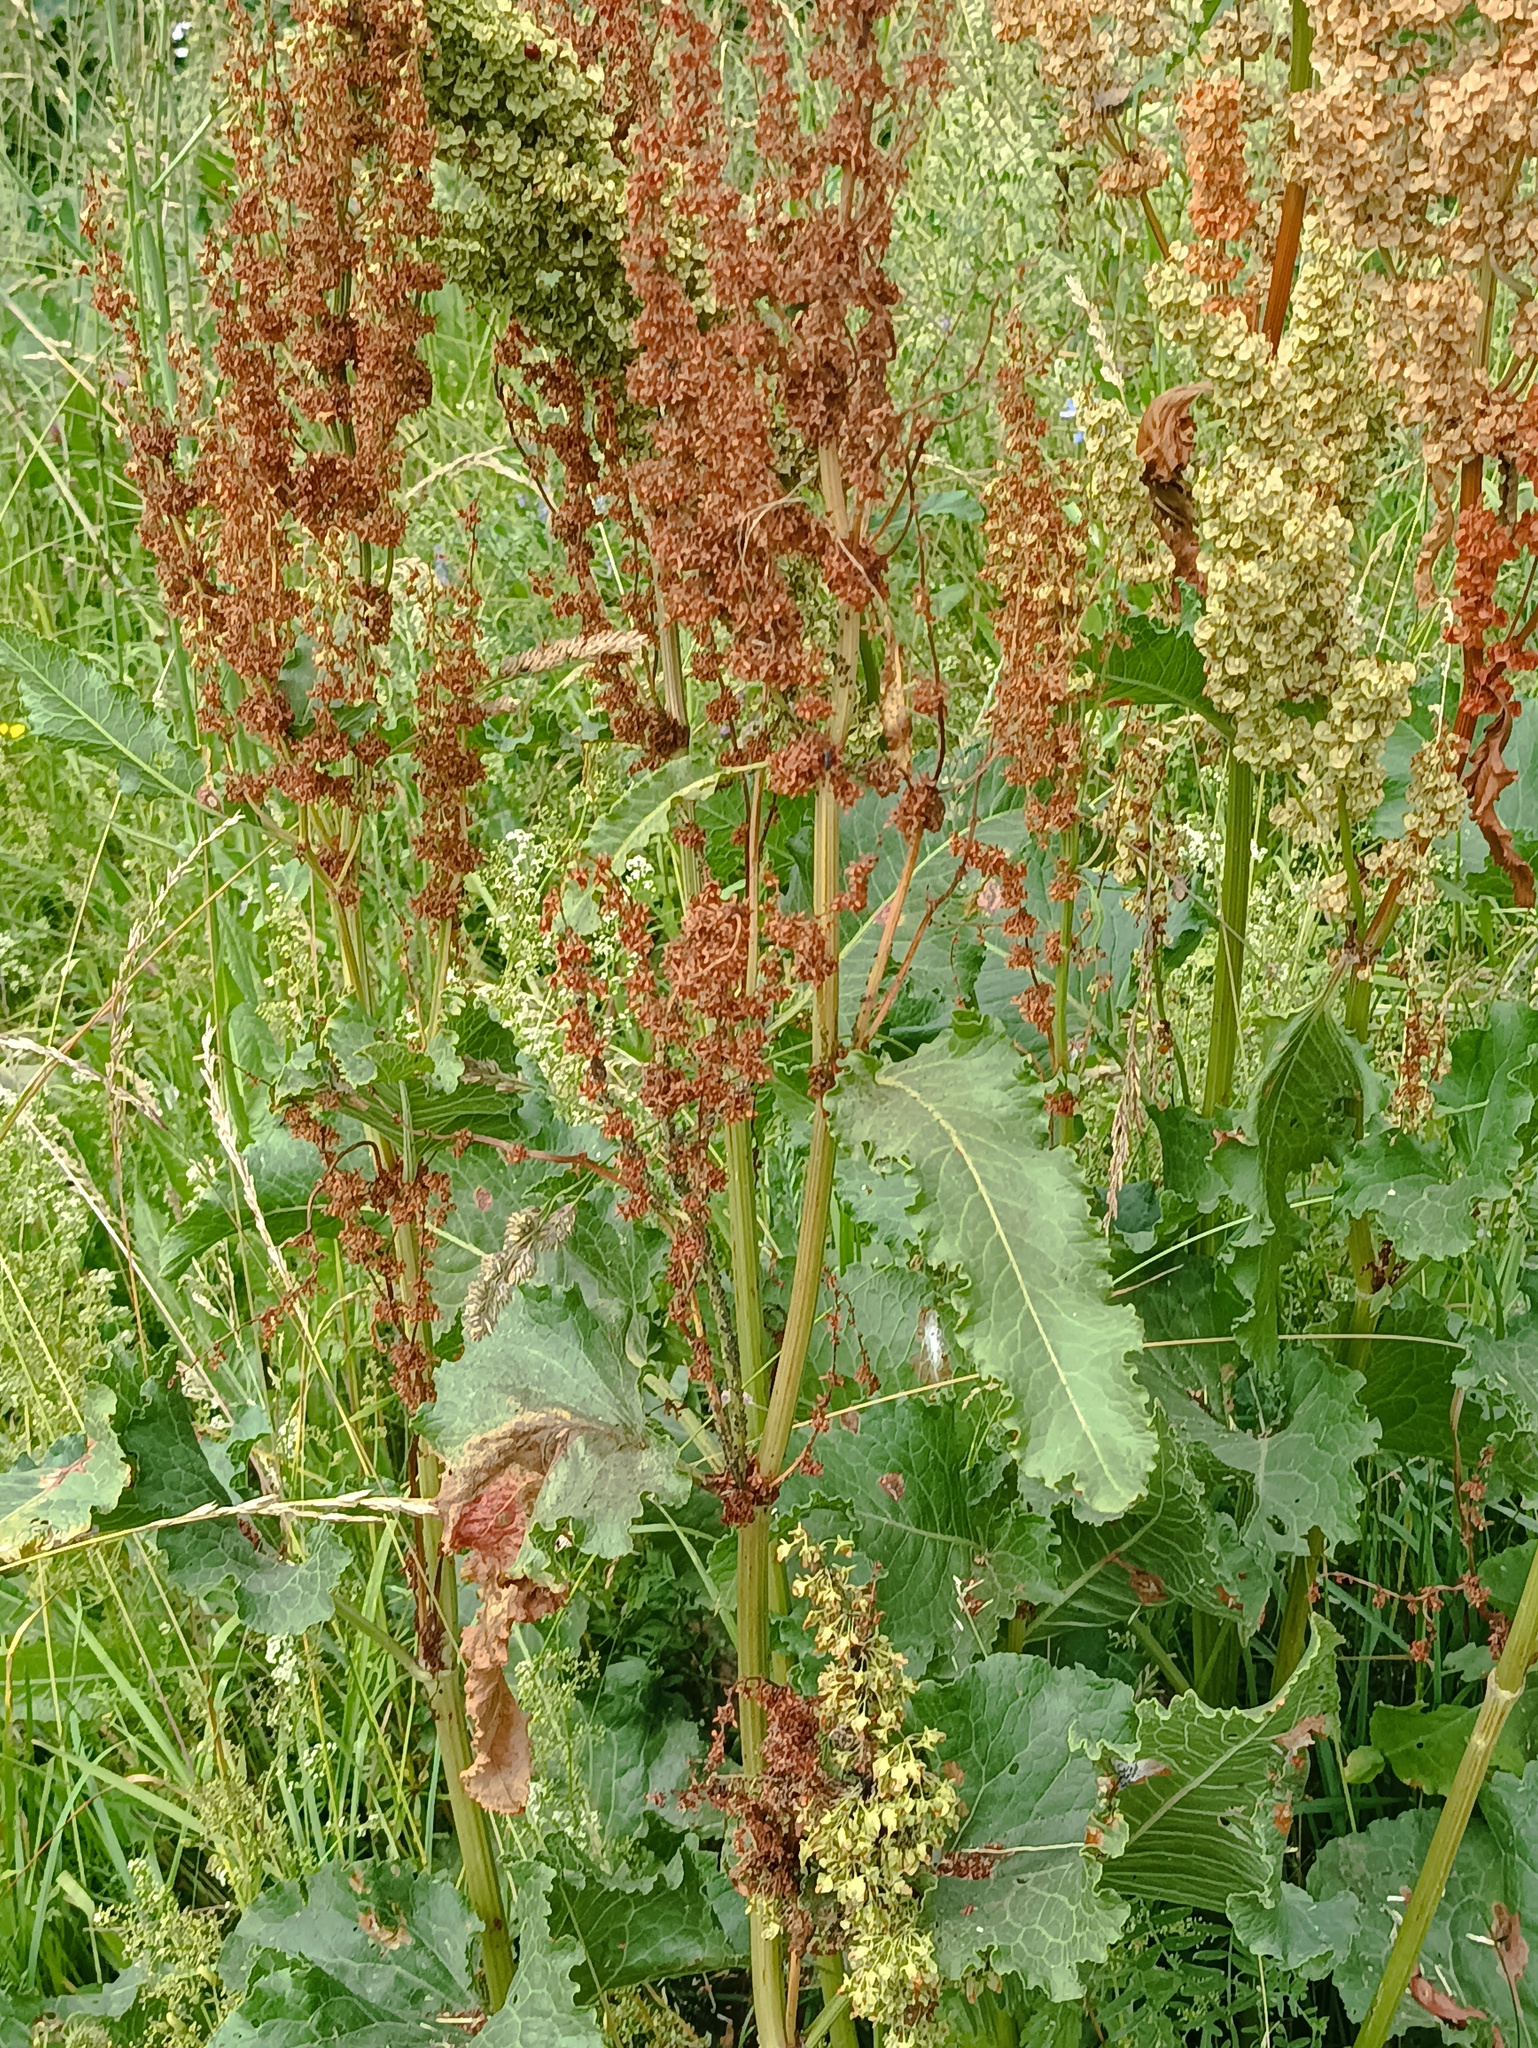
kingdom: Plantae
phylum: Tracheophyta
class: Magnoliopsida
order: Caryophyllales
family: Polygonaceae
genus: Rumex
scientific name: Rumex confertus
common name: Russian dock
